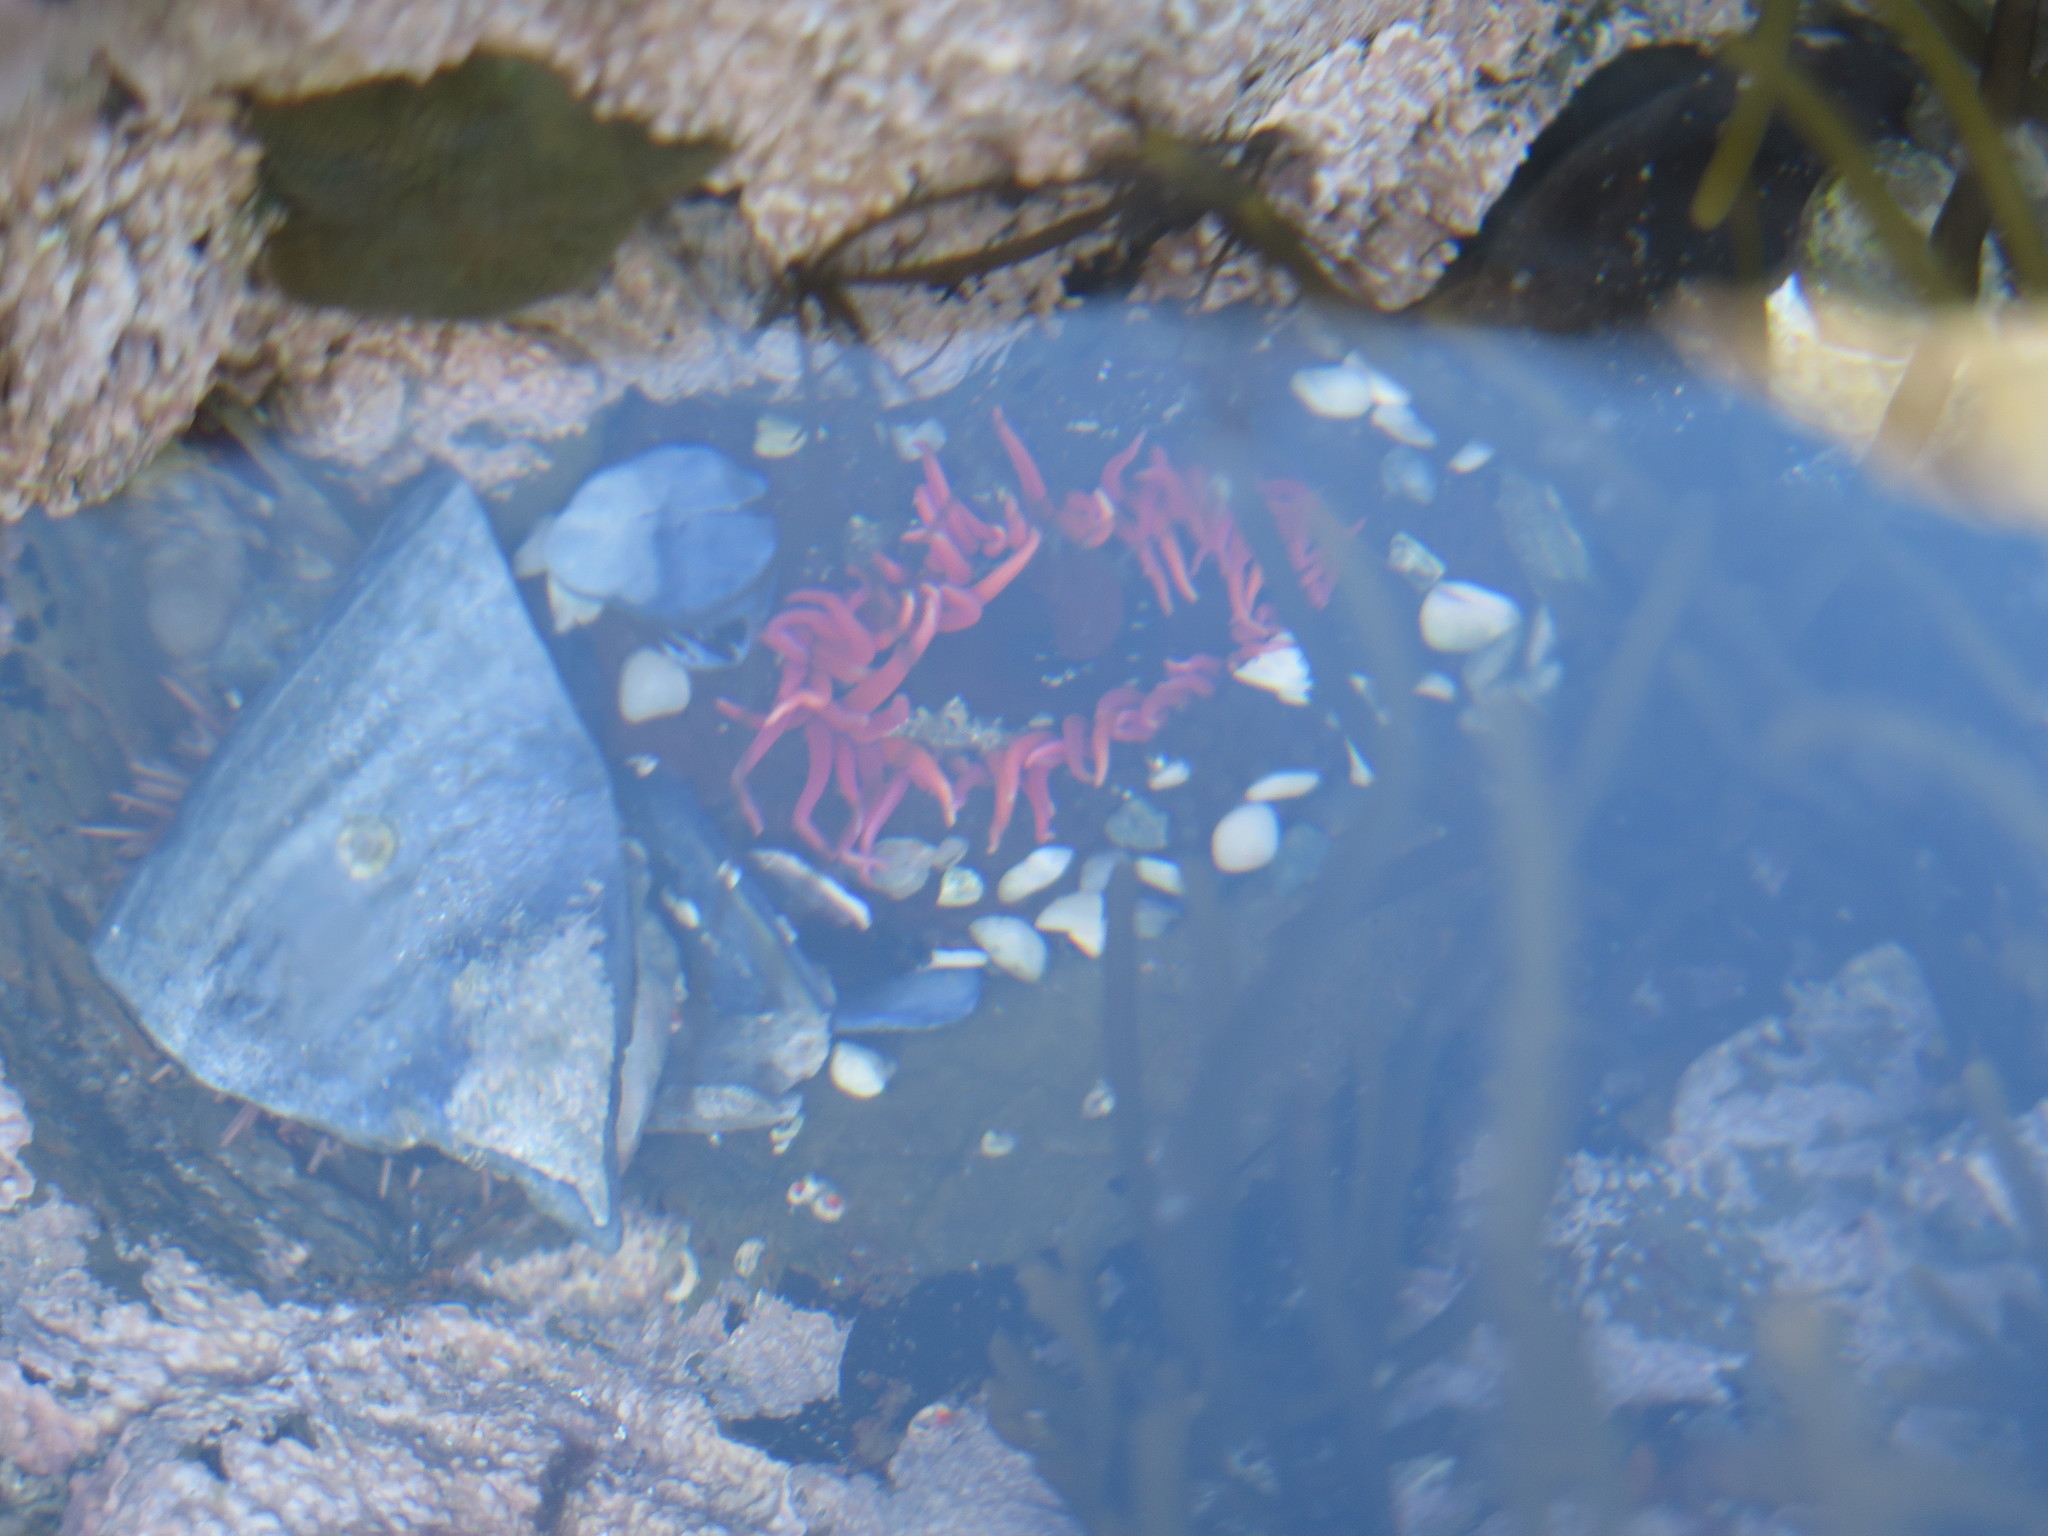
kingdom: Animalia
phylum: Cnidaria
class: Anthozoa
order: Actiniaria
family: Actiniidae
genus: Bunodactis
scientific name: Bunodactis reynaudi
